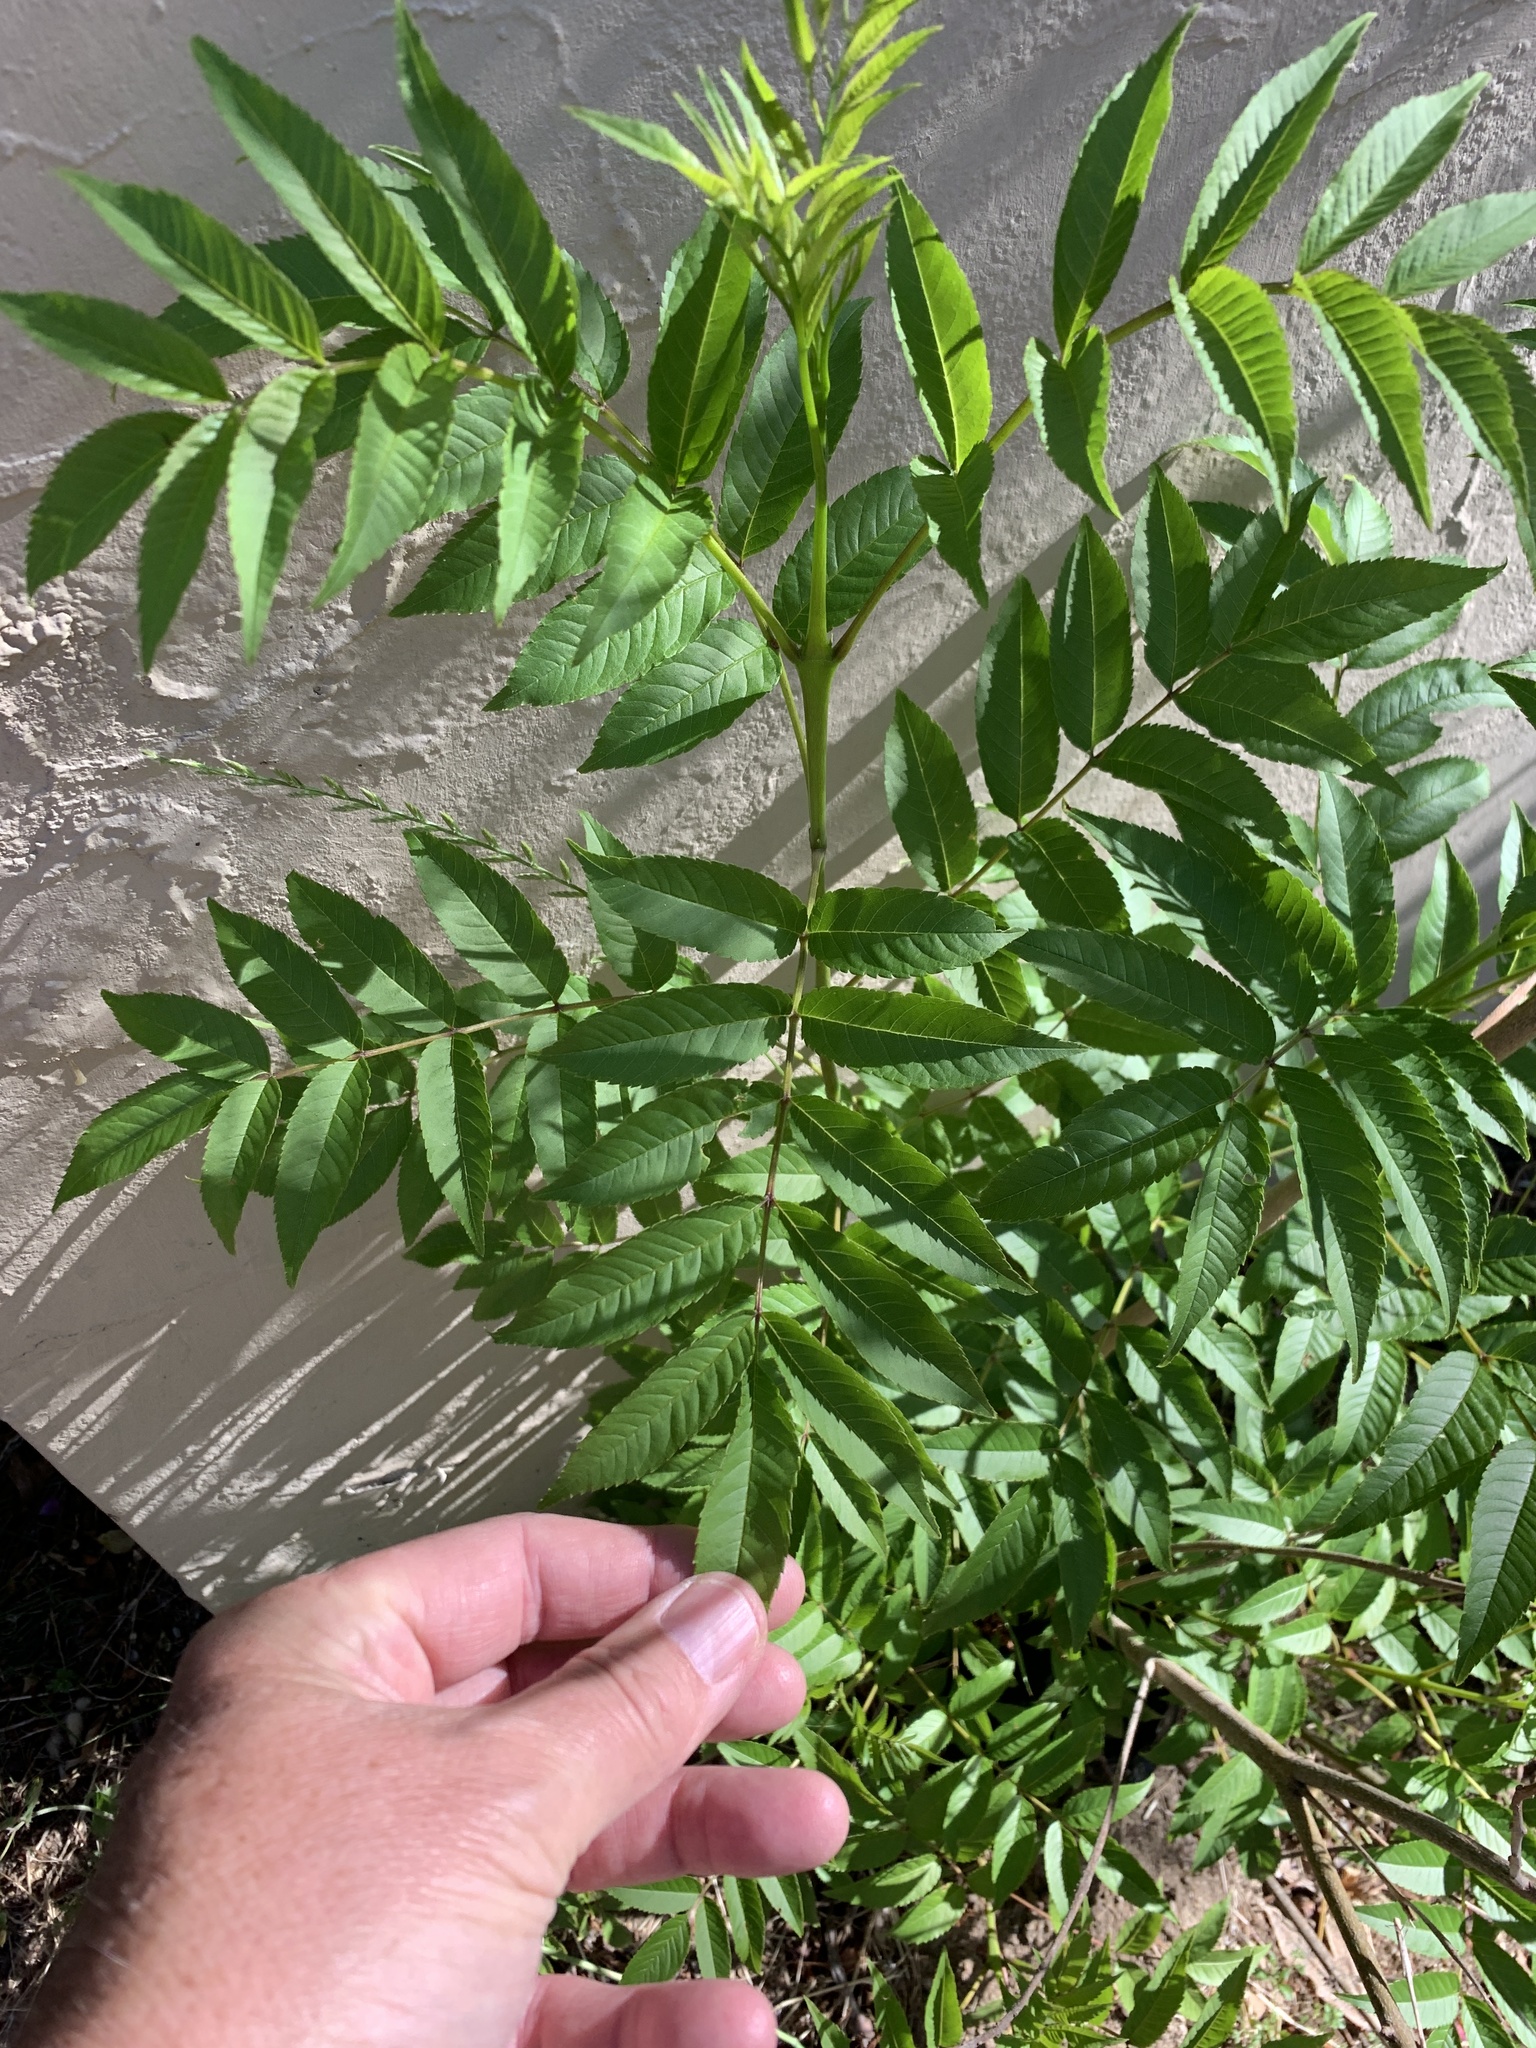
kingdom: Plantae
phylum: Tracheophyta
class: Magnoliopsida
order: Lamiales
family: Bignoniaceae
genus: Tecoma
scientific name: Tecoma stans
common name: Yellow trumpetbush
